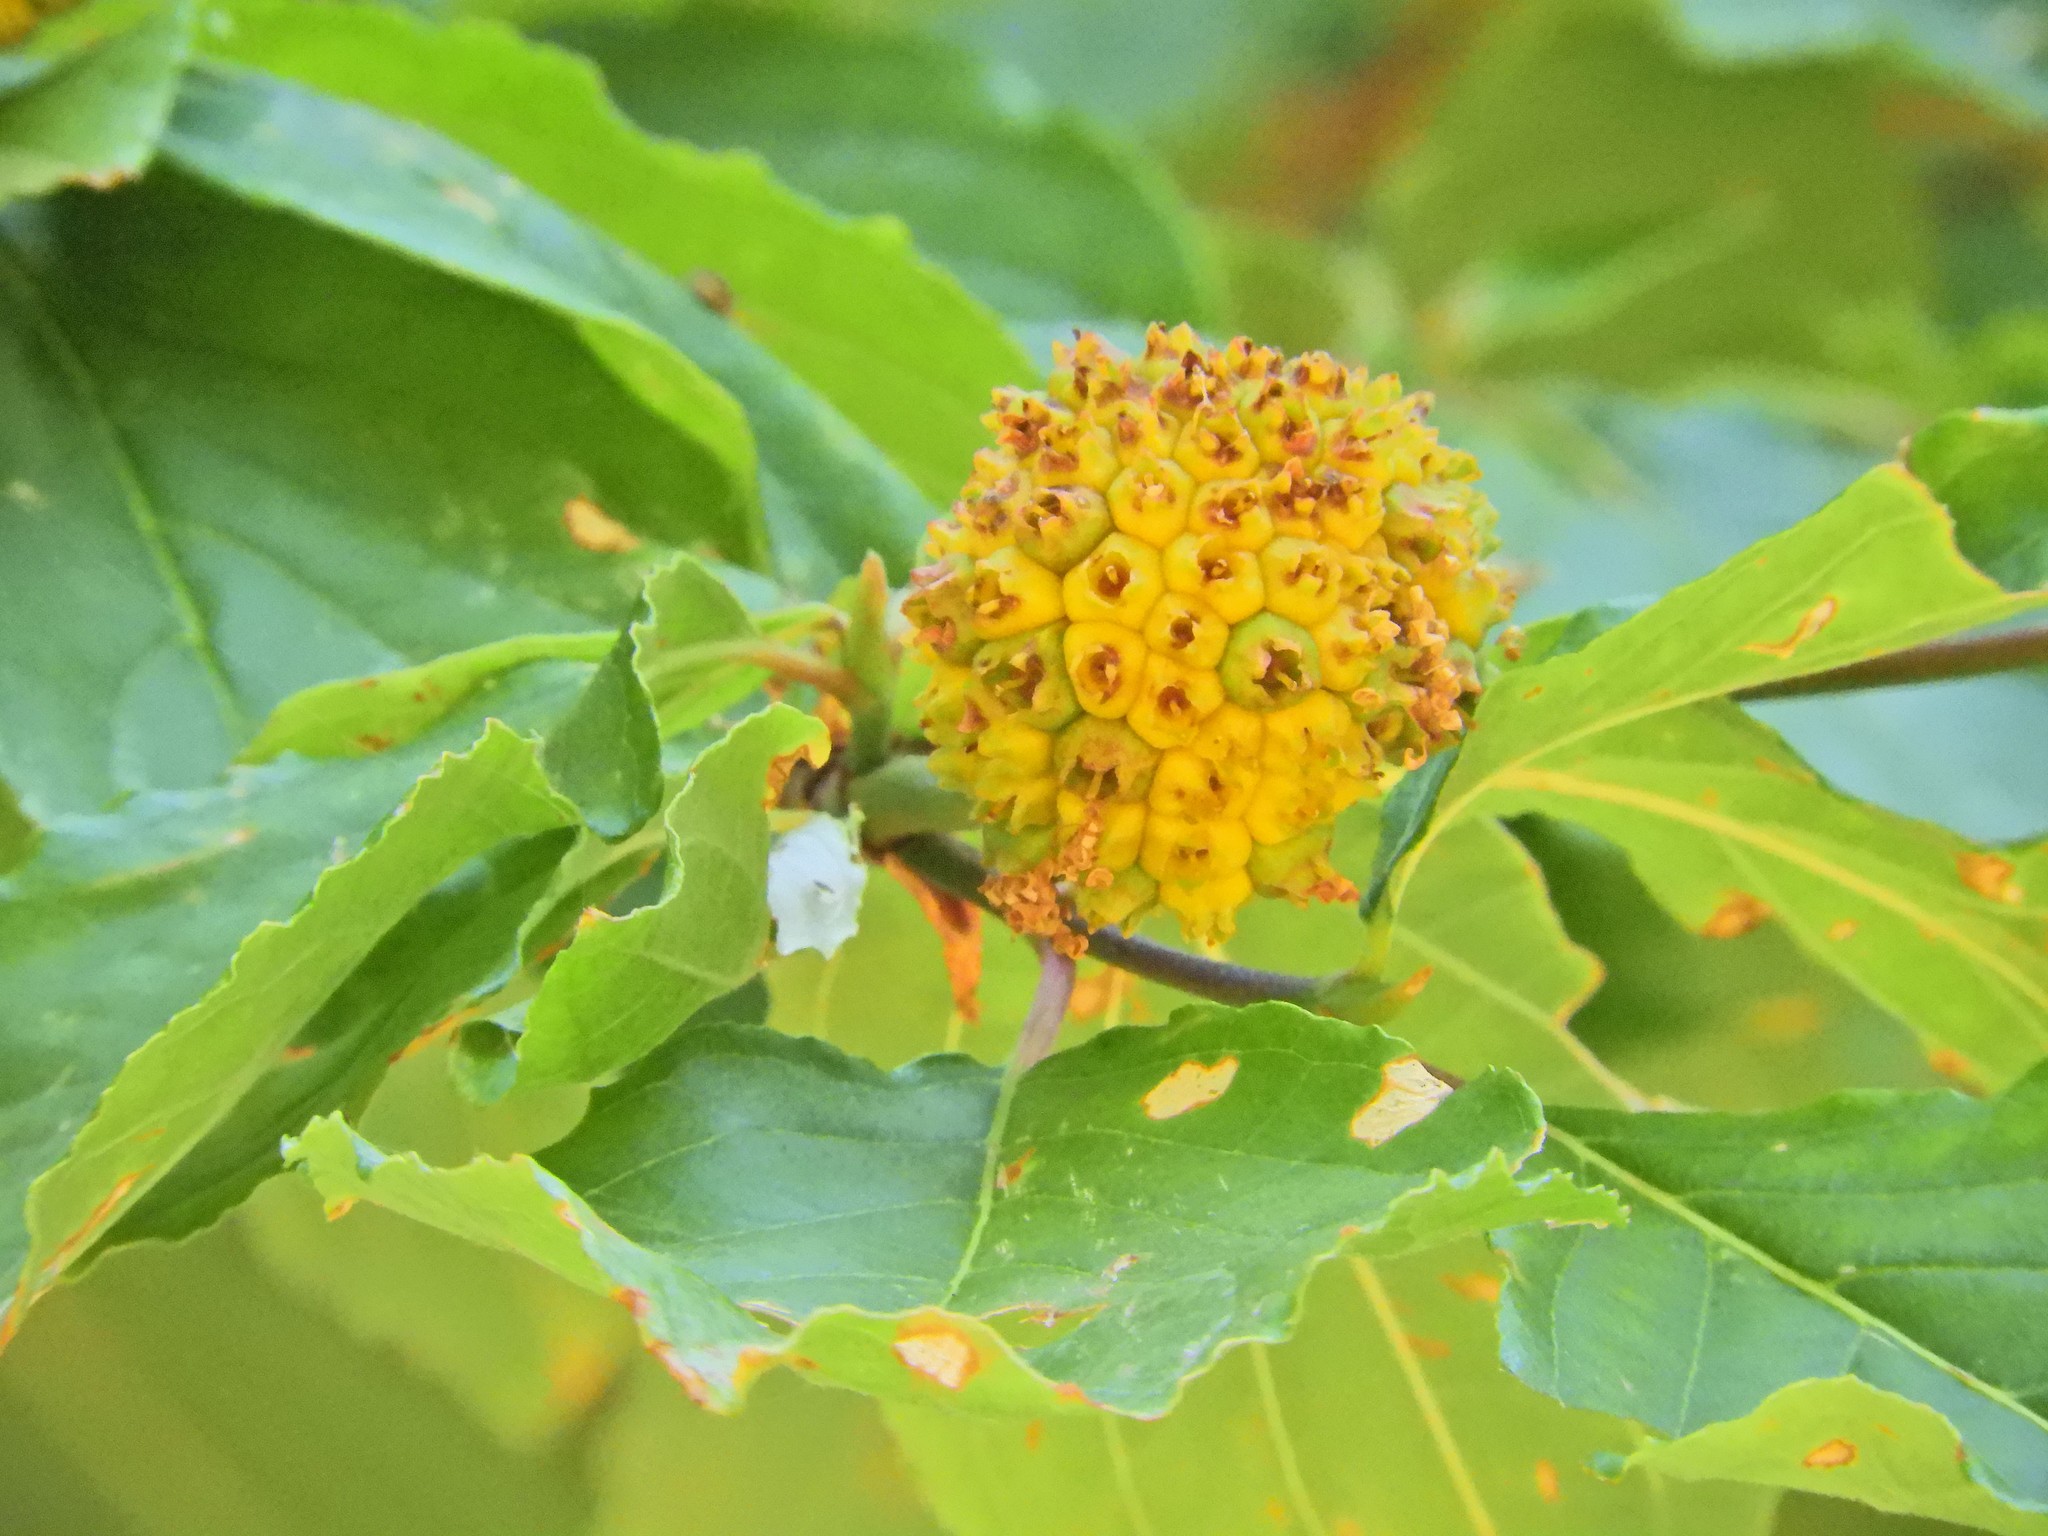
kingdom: Plantae
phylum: Tracheophyta
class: Magnoliopsida
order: Cornales
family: Cornaceae
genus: Cornus
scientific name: Cornus nuttallii
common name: Pacific dogwood
